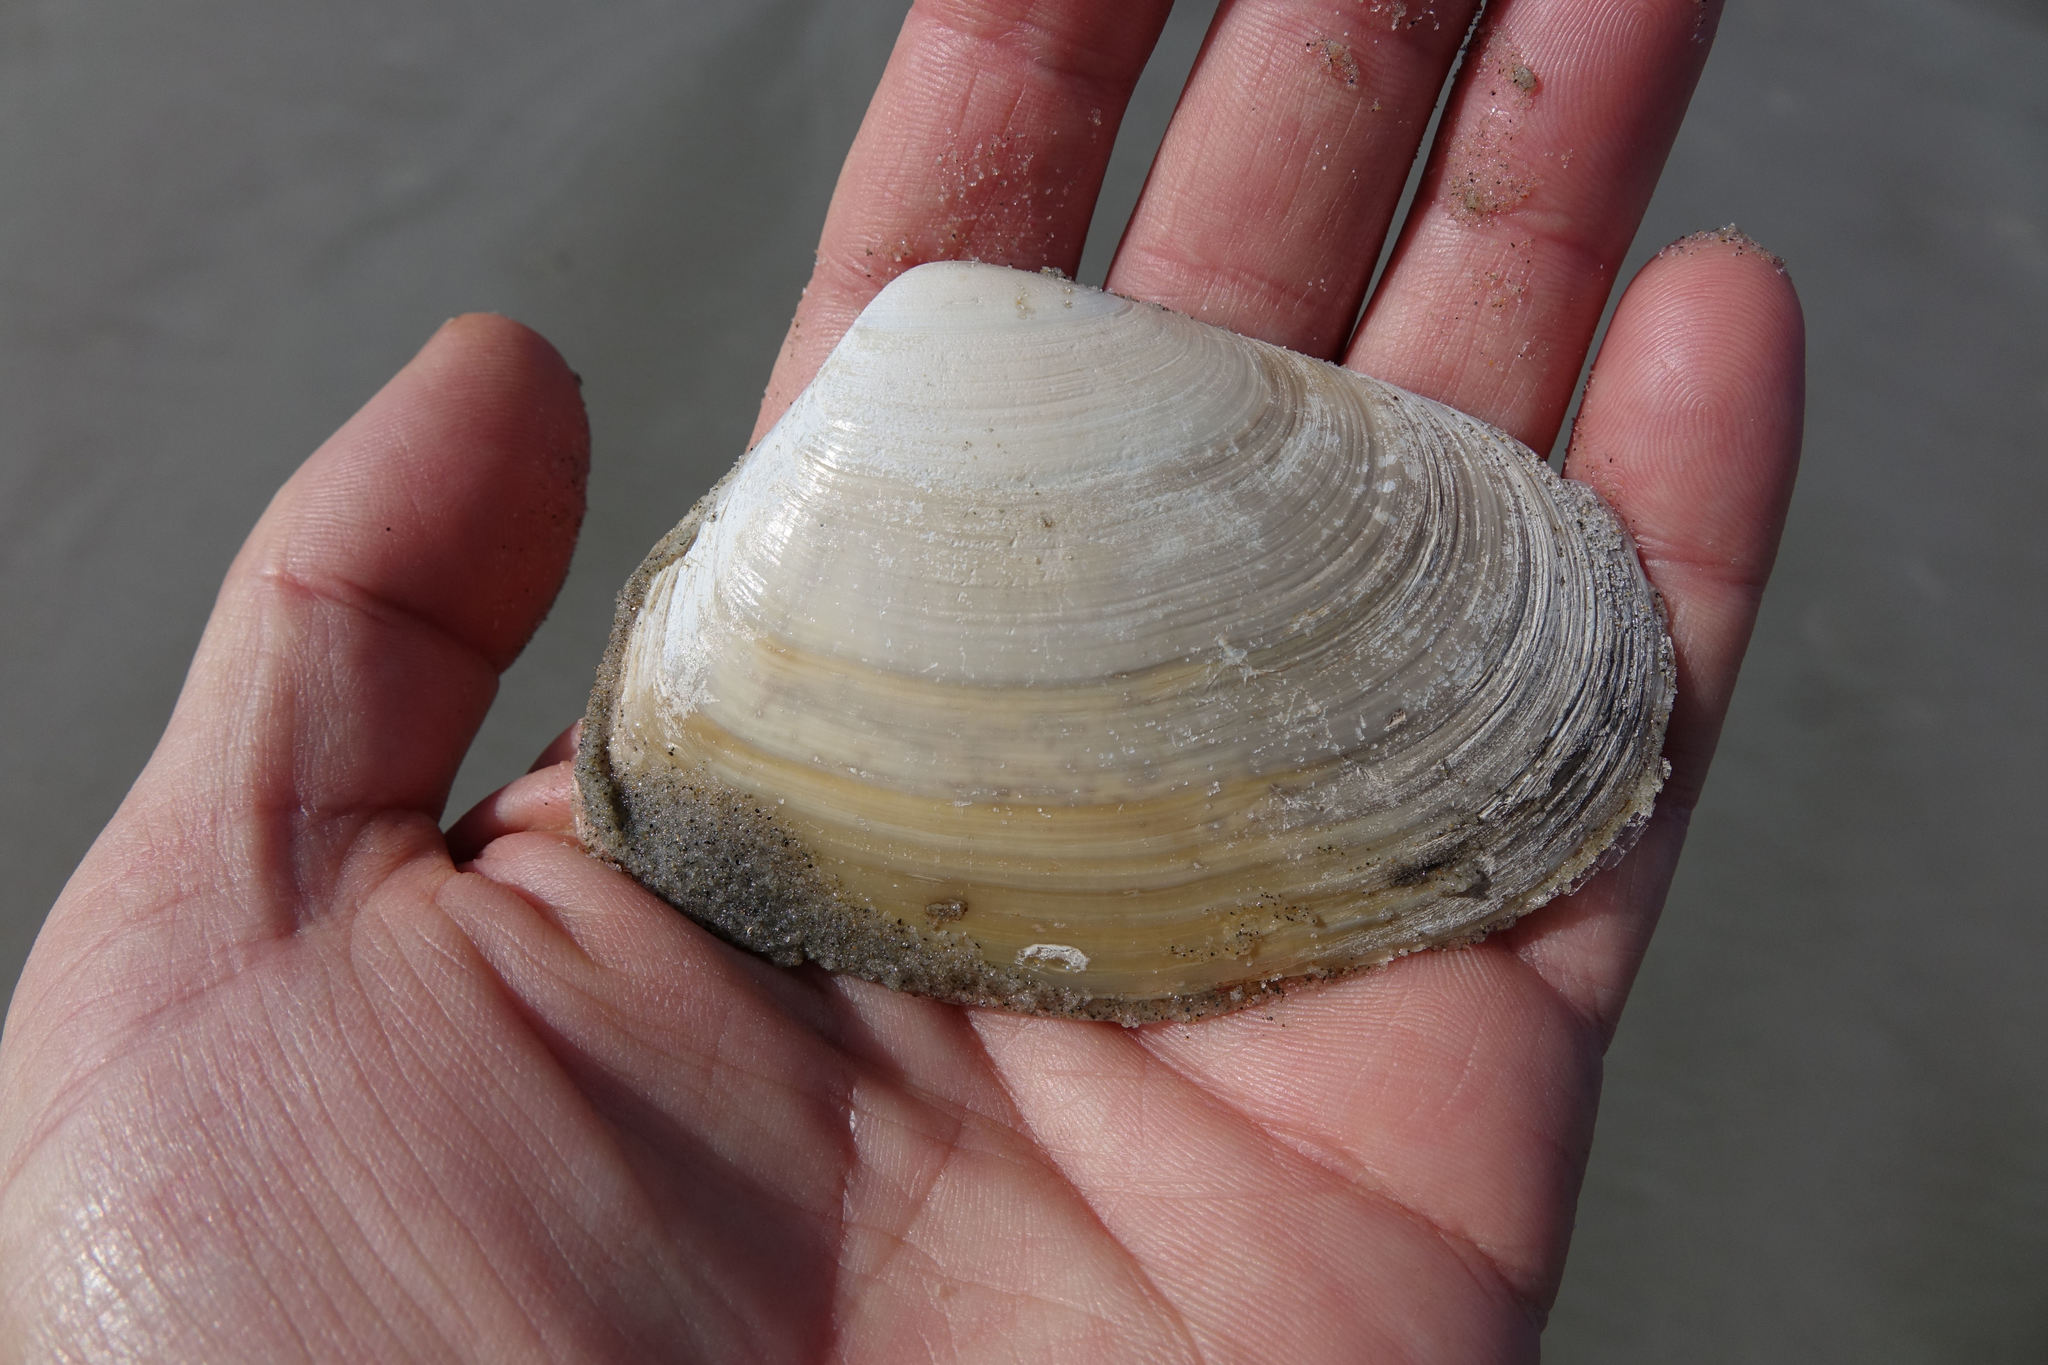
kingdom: Animalia
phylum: Mollusca
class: Bivalvia
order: Venerida
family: Mesodesmatidae
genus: Paphies
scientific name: Paphies donacina
